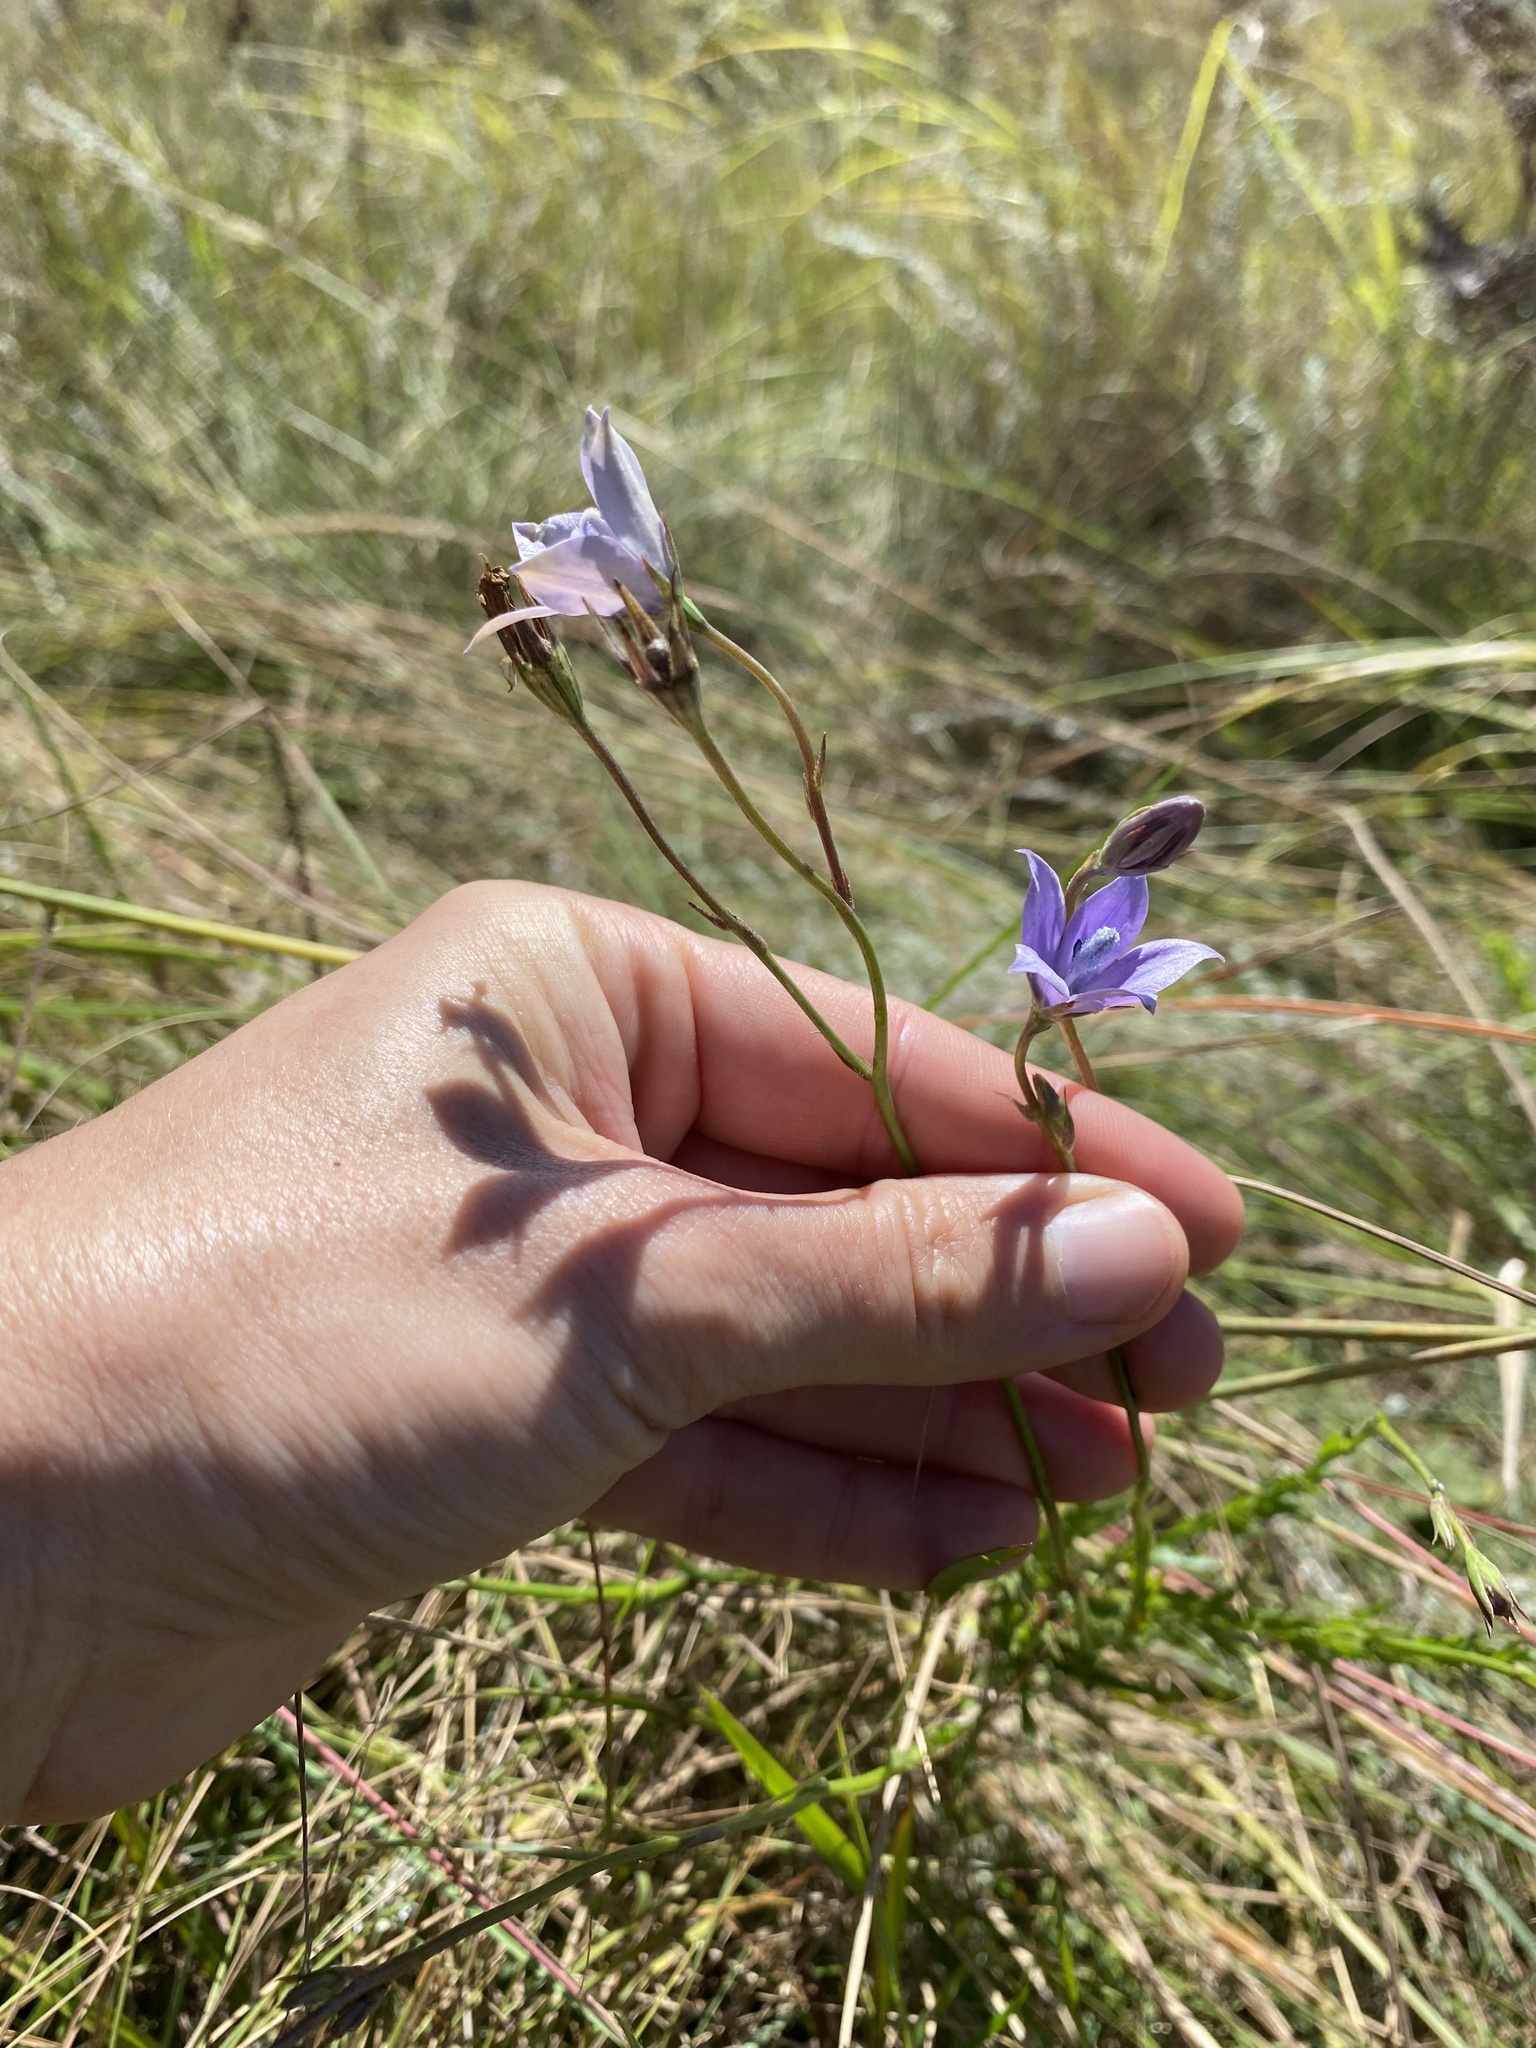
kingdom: Plantae
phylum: Tracheophyta
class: Magnoliopsida
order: Asterales
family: Campanulaceae
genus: Wahlenbergia
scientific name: Wahlenbergia undulata
